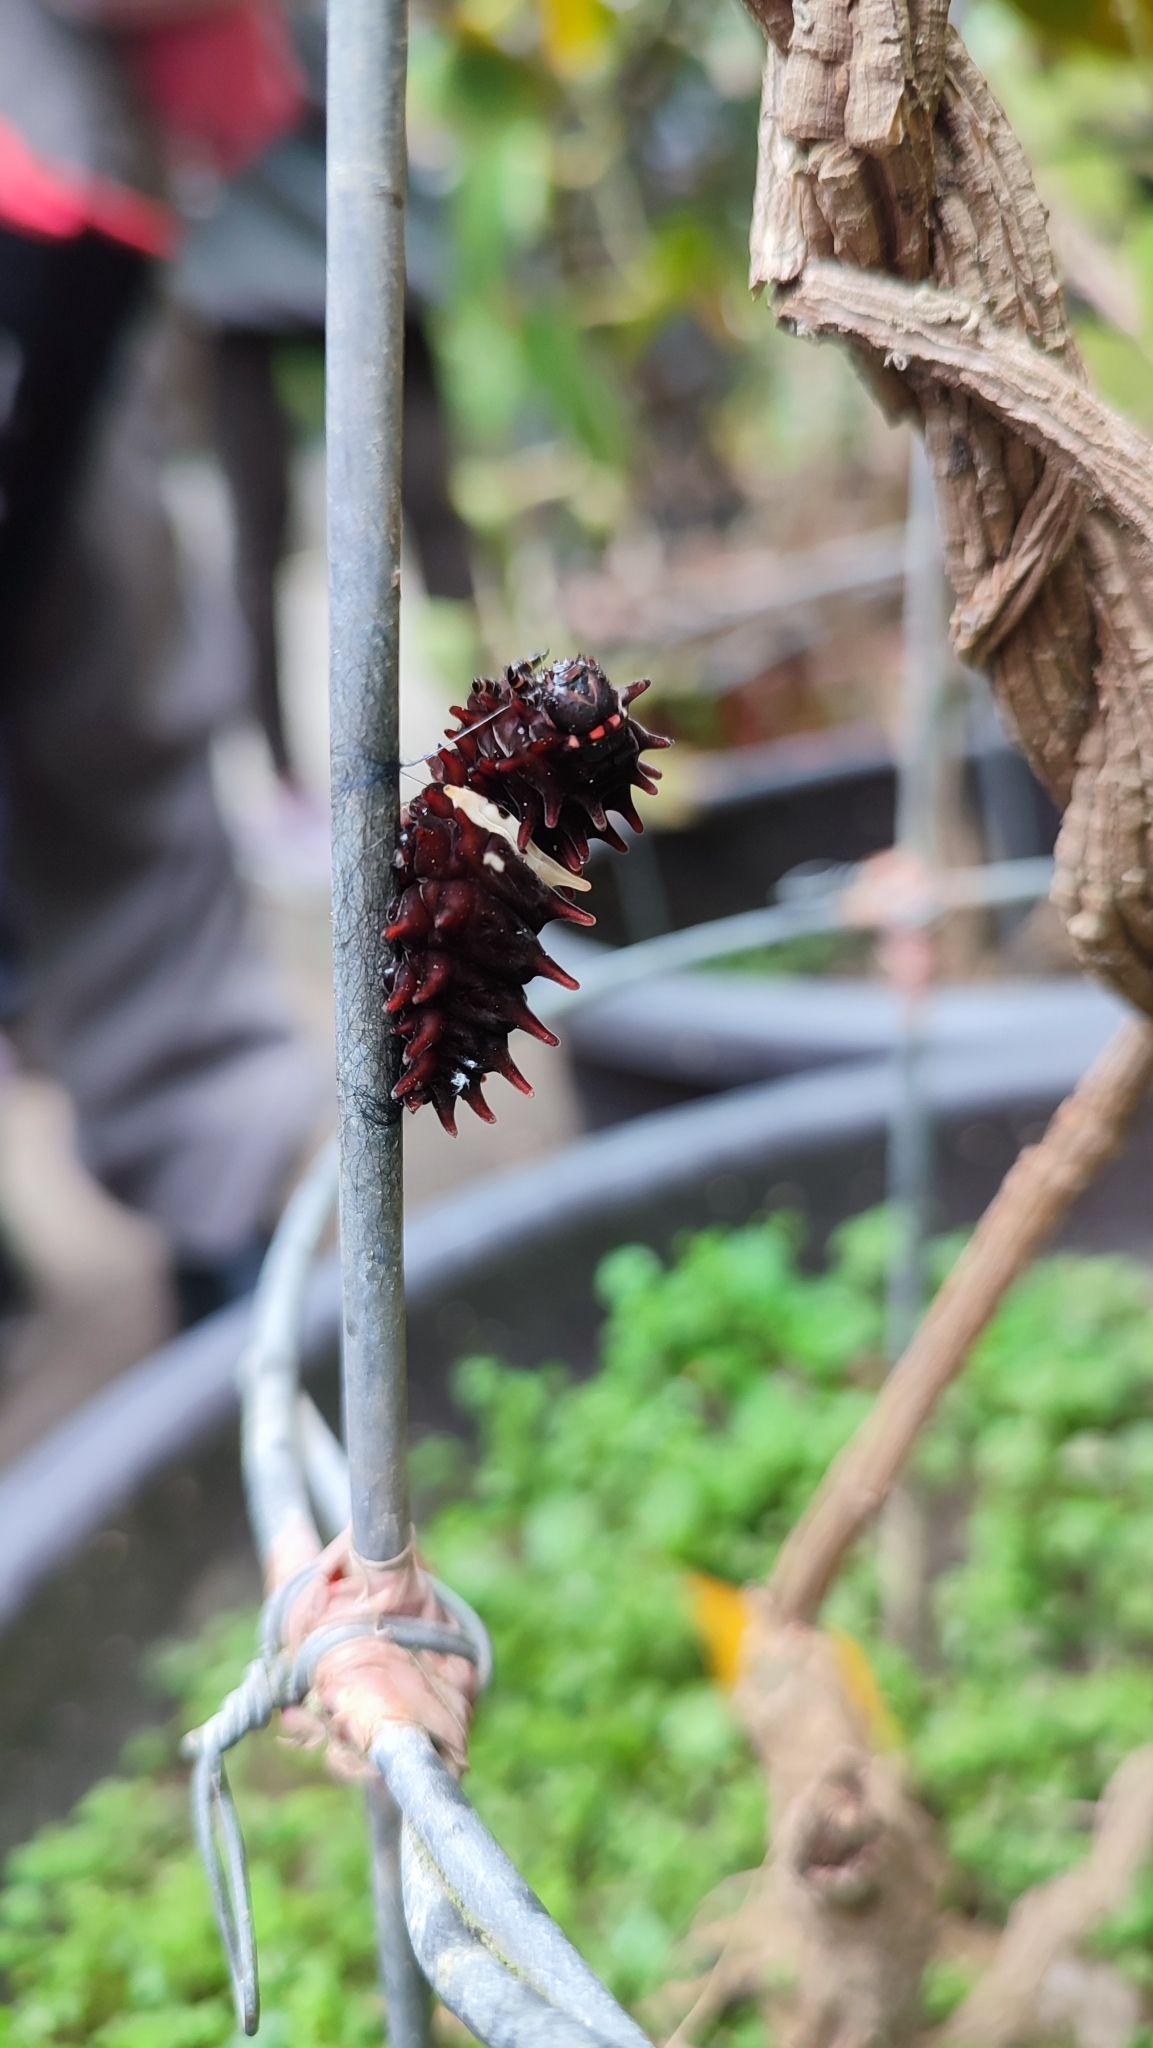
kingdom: Animalia
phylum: Arthropoda
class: Insecta
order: Lepidoptera
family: Papilionidae
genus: Pachliopta
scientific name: Pachliopta aristolochiae
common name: Common rose
